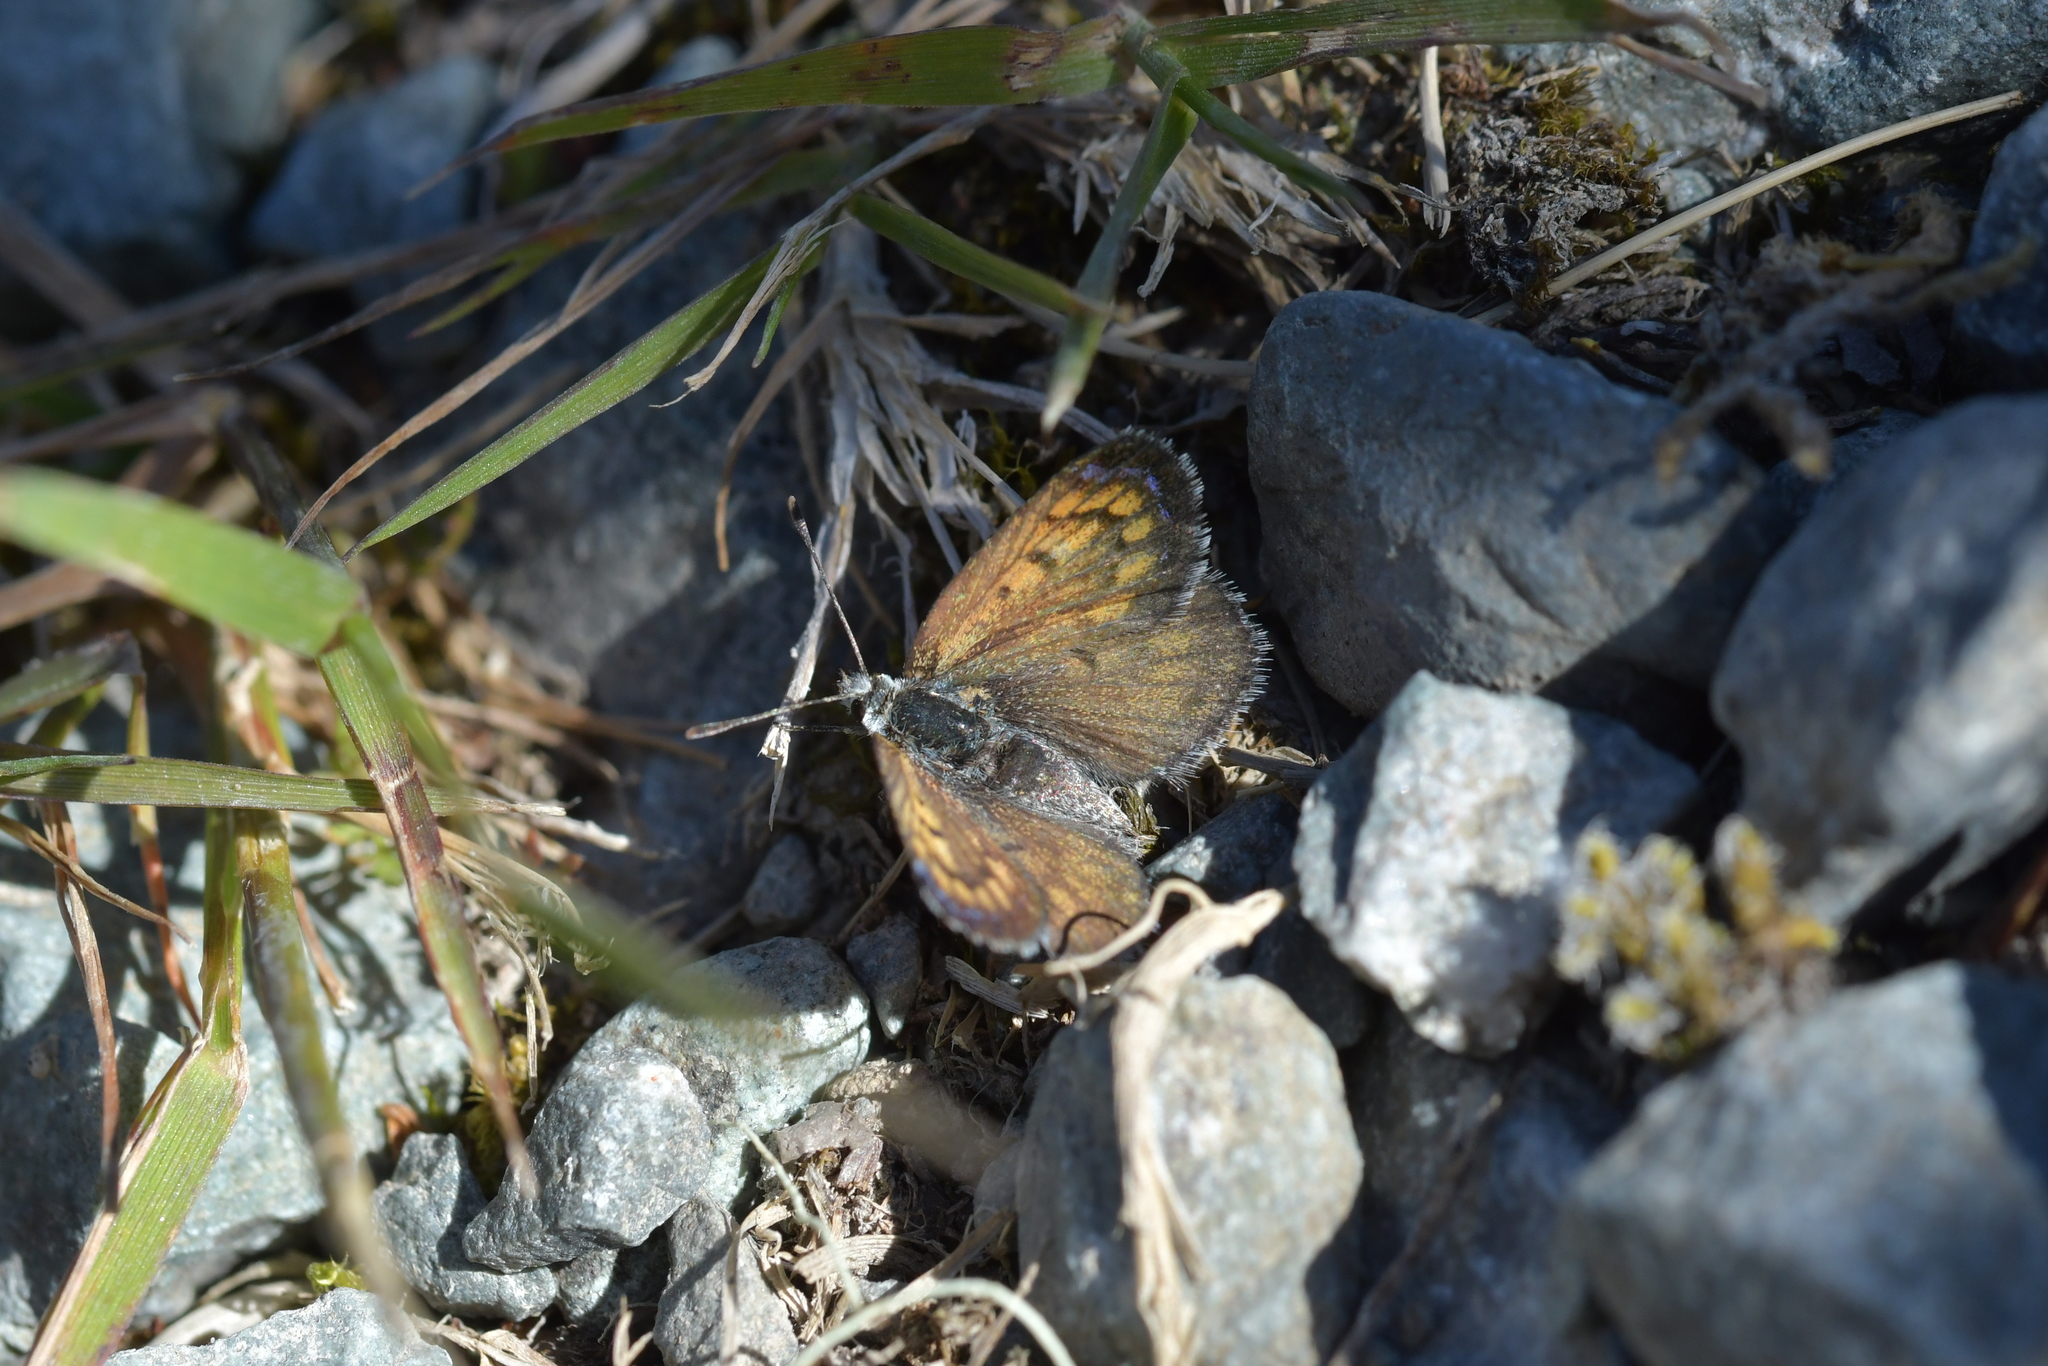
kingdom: Animalia
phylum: Arthropoda
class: Insecta
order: Lepidoptera
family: Lycaenidae
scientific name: Lycaenidae
